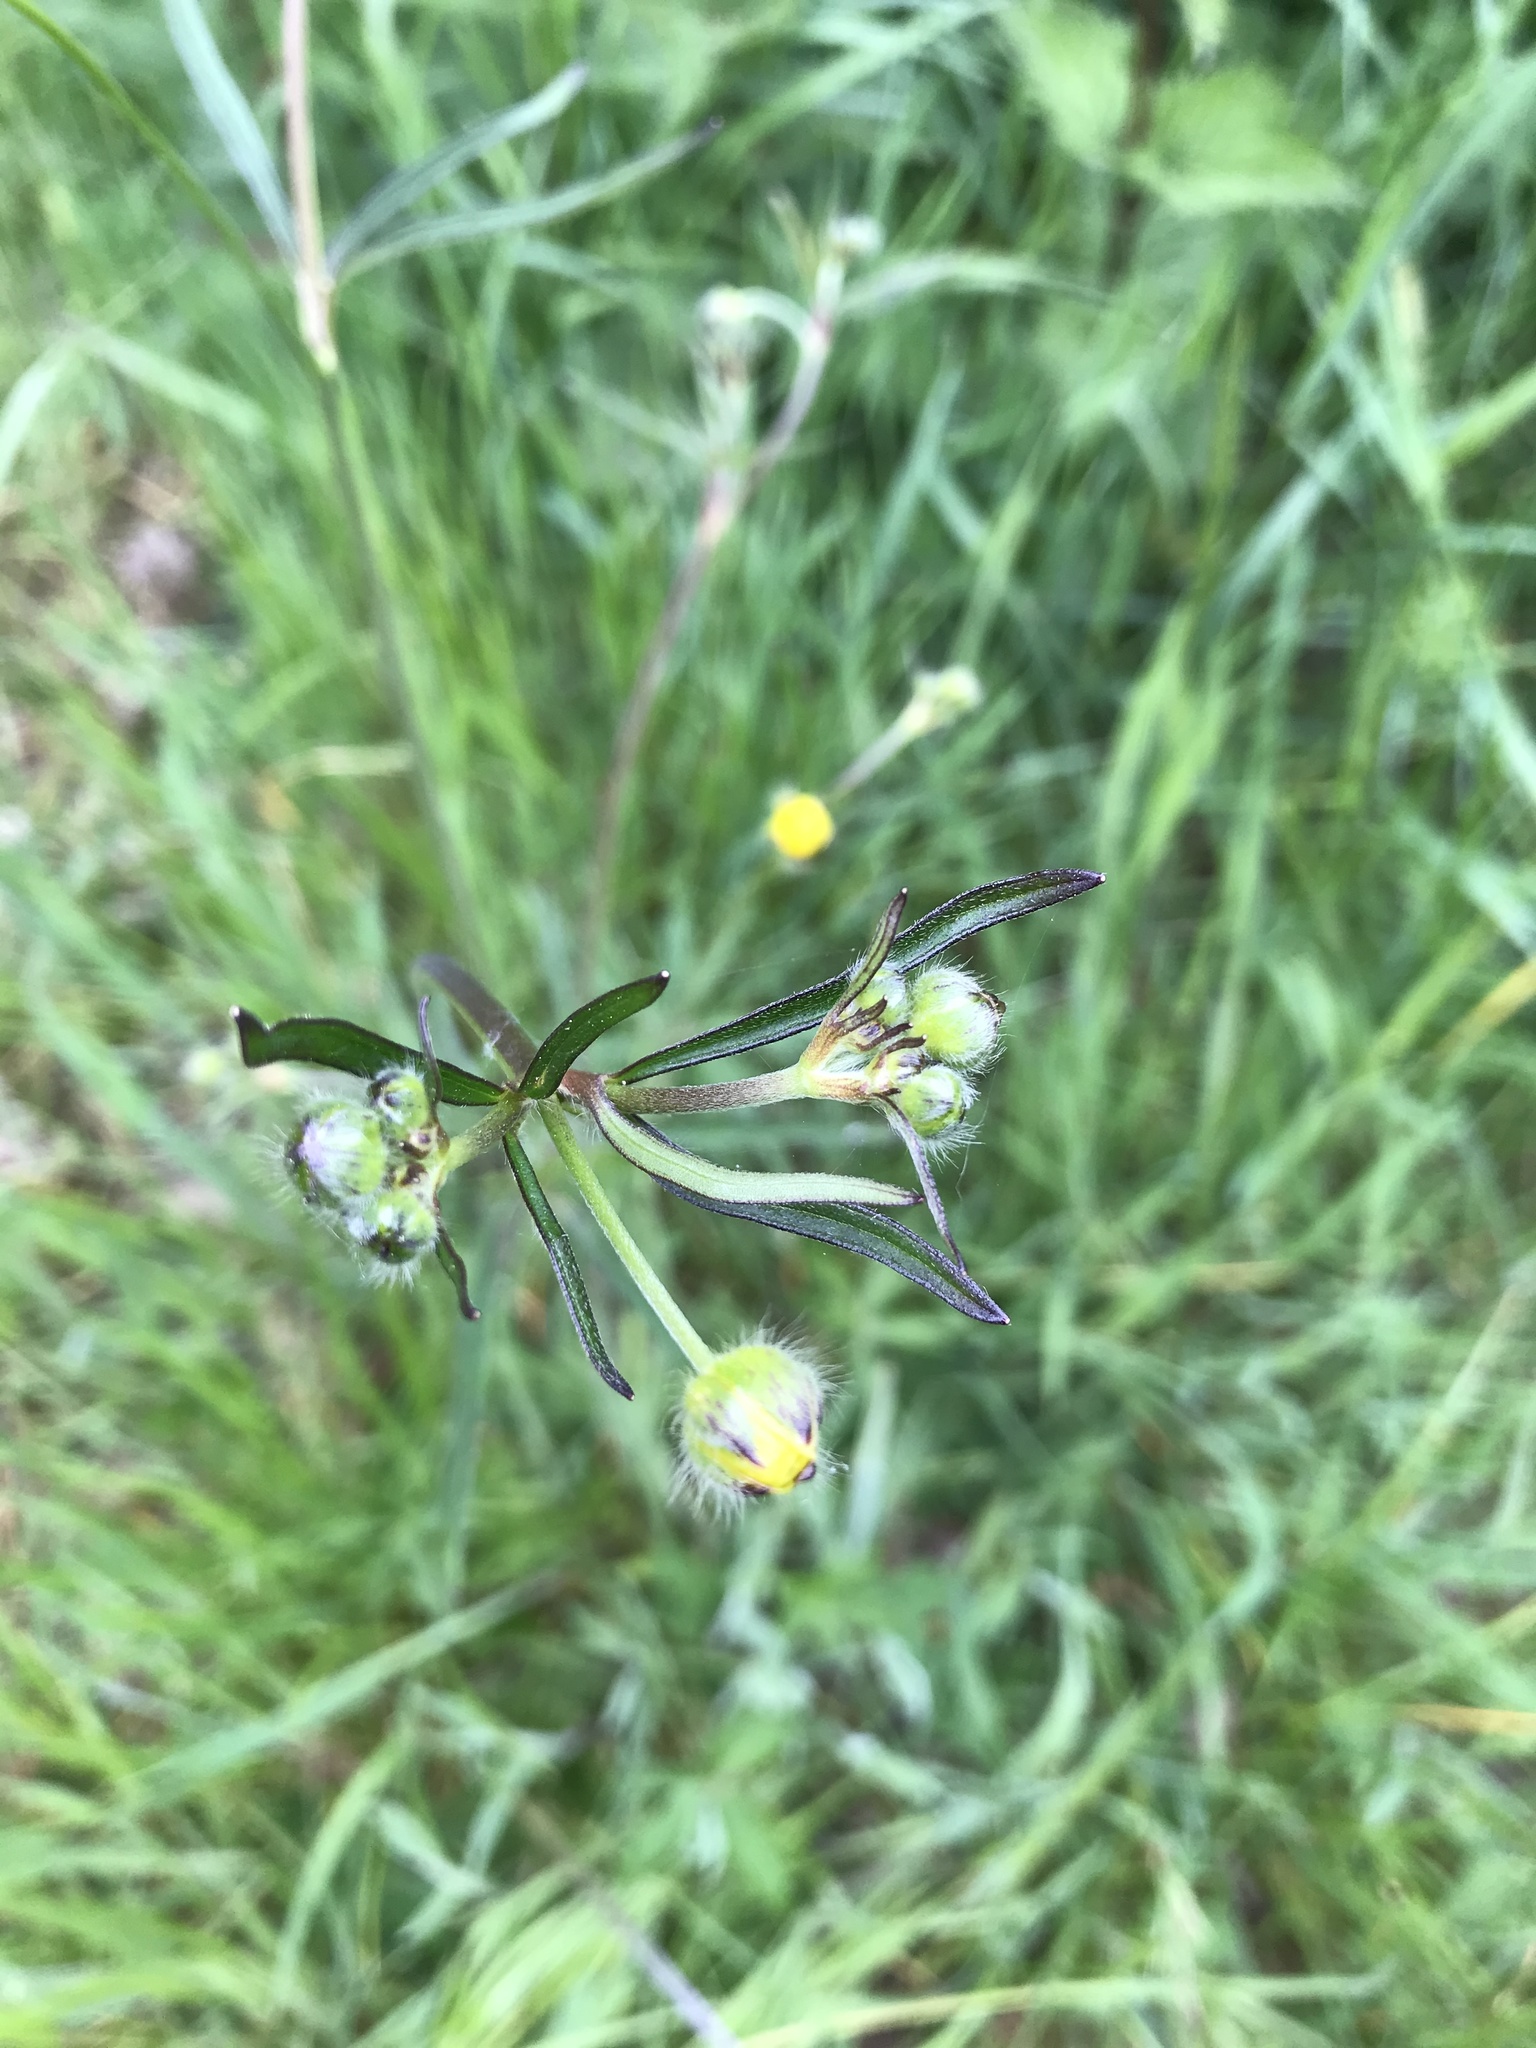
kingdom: Plantae
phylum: Tracheophyta
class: Magnoliopsida
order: Ranunculales
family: Ranunculaceae
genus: Ranunculus
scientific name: Ranunculus acris
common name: Meadow buttercup
